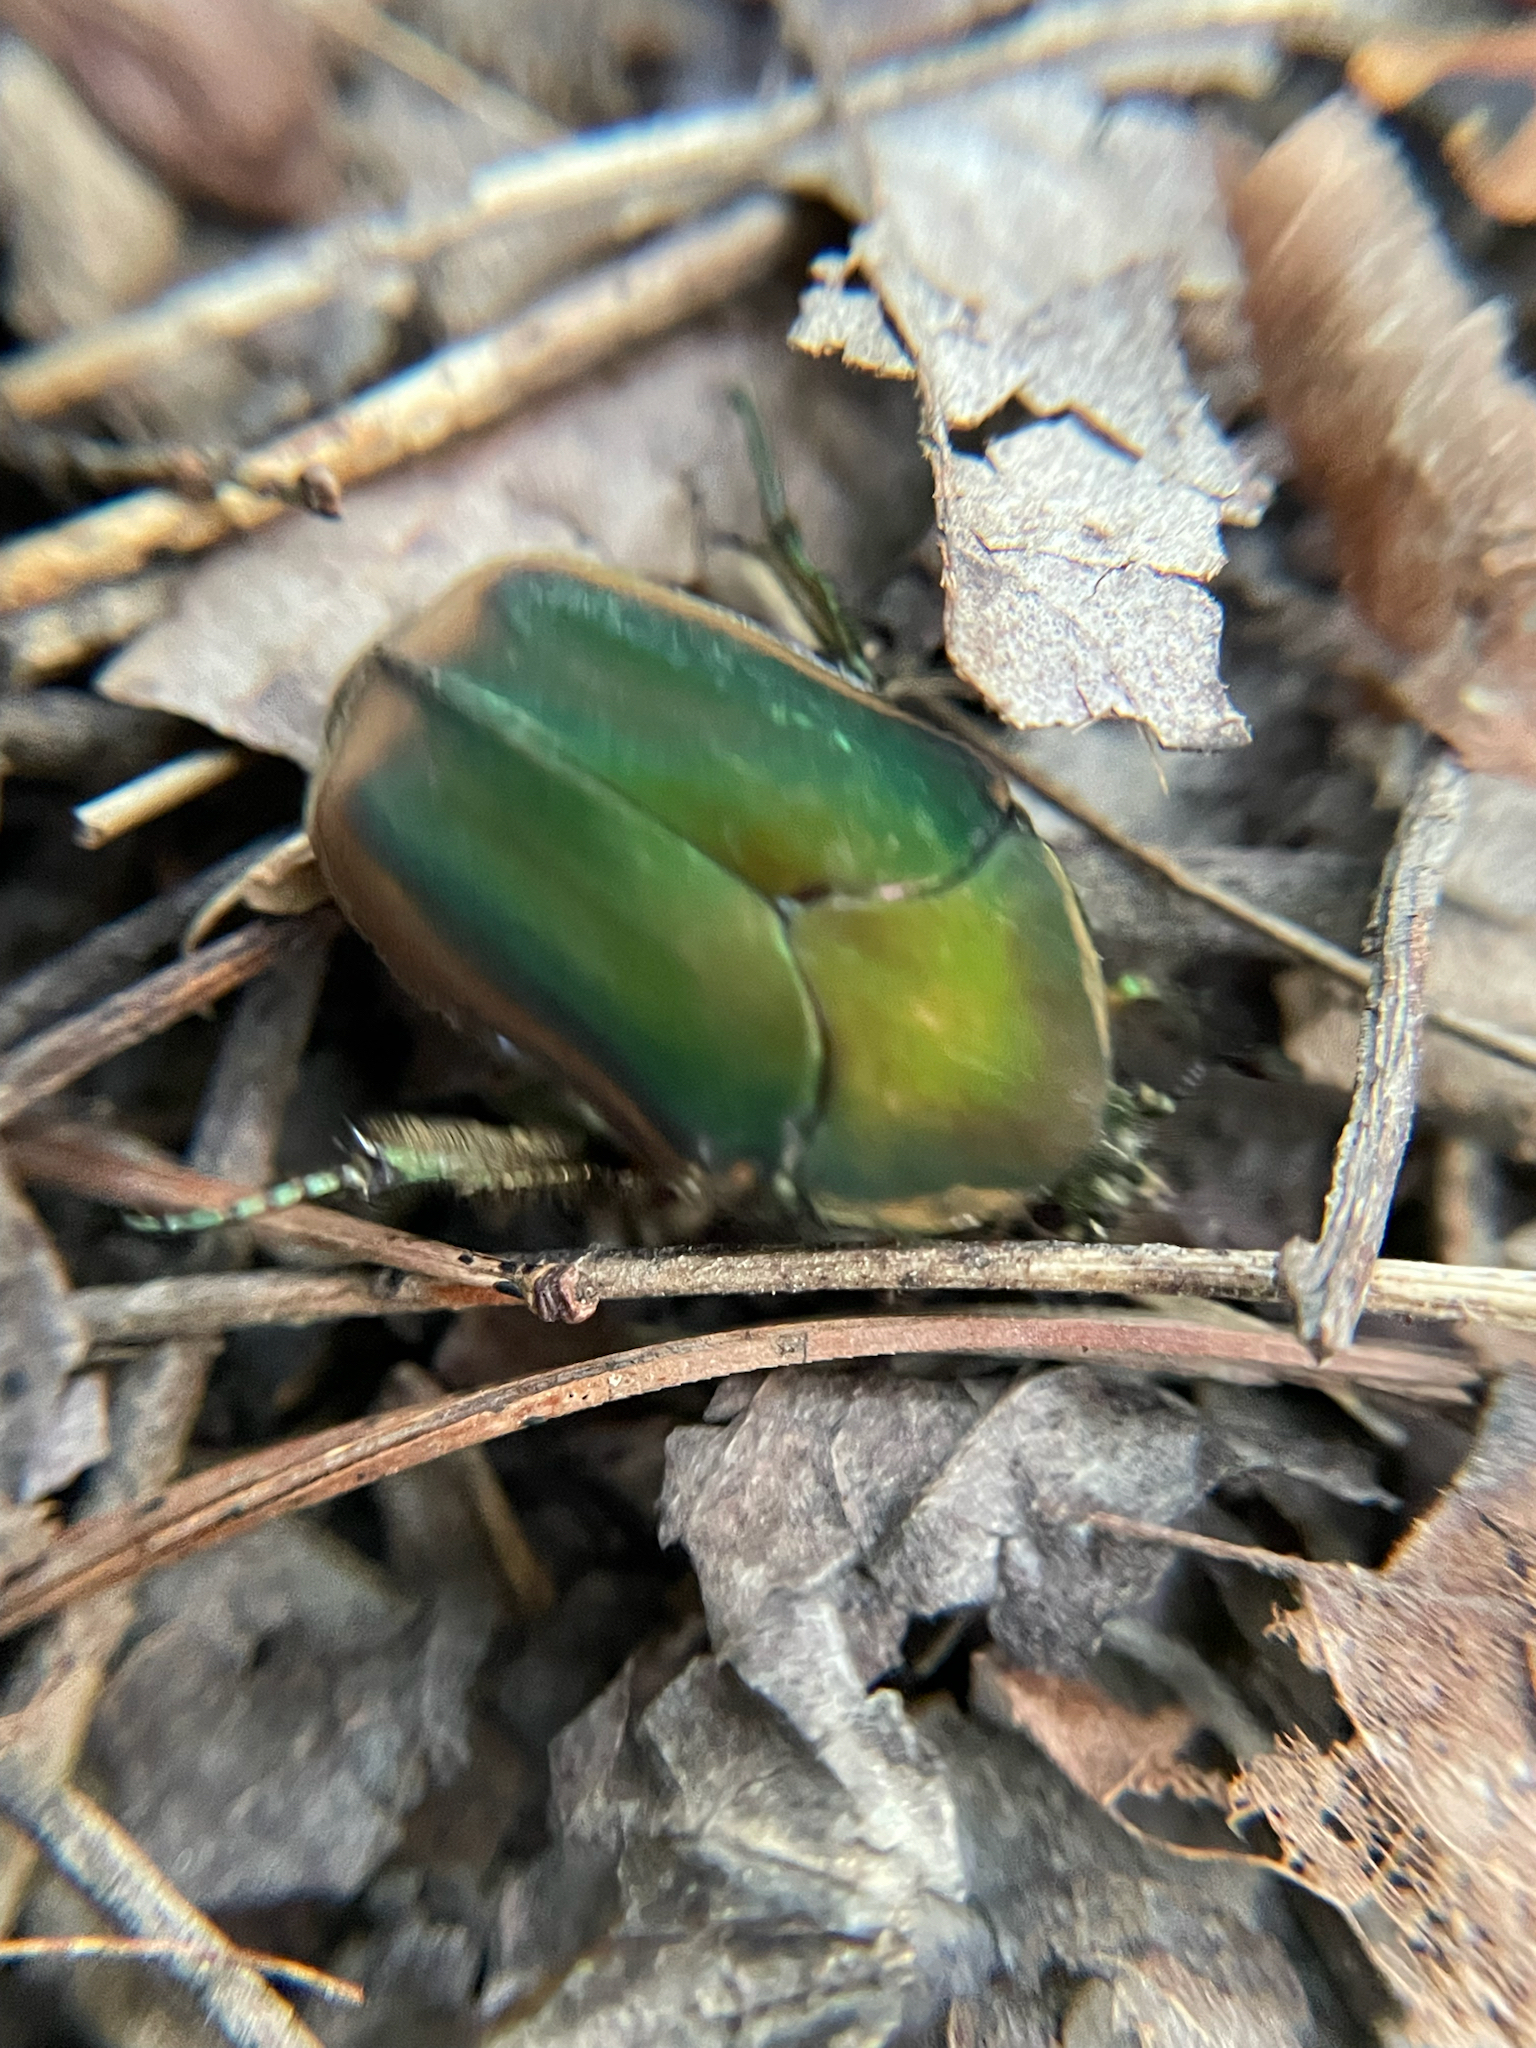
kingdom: Animalia
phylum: Arthropoda
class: Insecta
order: Coleoptera
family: Scarabaeidae
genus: Cotinis
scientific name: Cotinis nitida
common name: Common green june beetle
